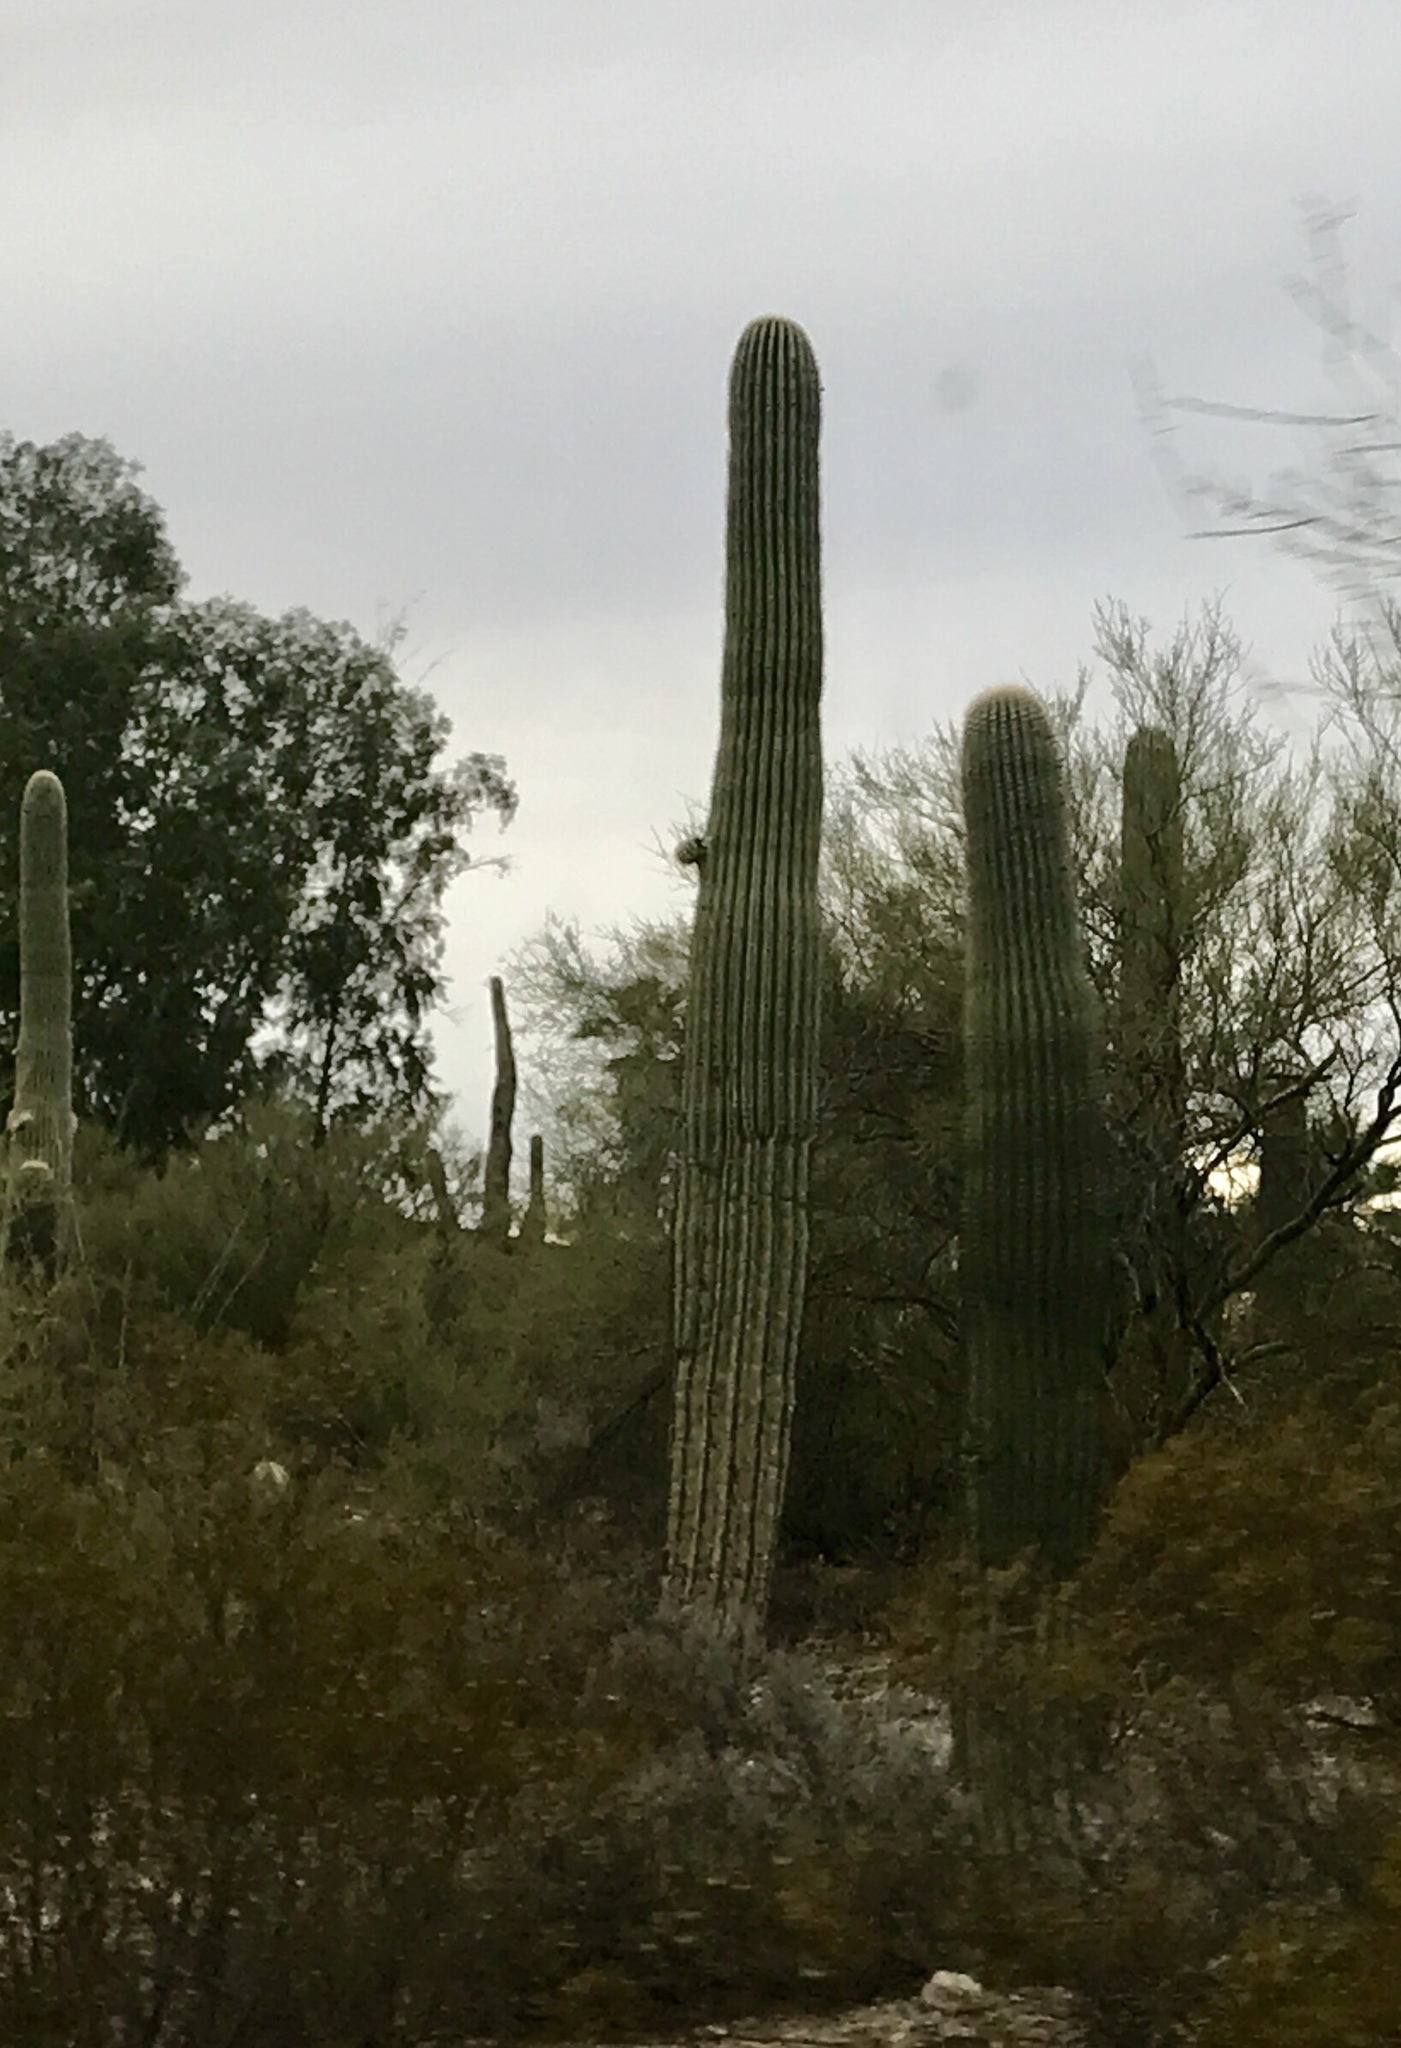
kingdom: Plantae
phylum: Tracheophyta
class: Magnoliopsida
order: Caryophyllales
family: Cactaceae
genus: Carnegiea
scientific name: Carnegiea gigantea
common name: Saguaro
